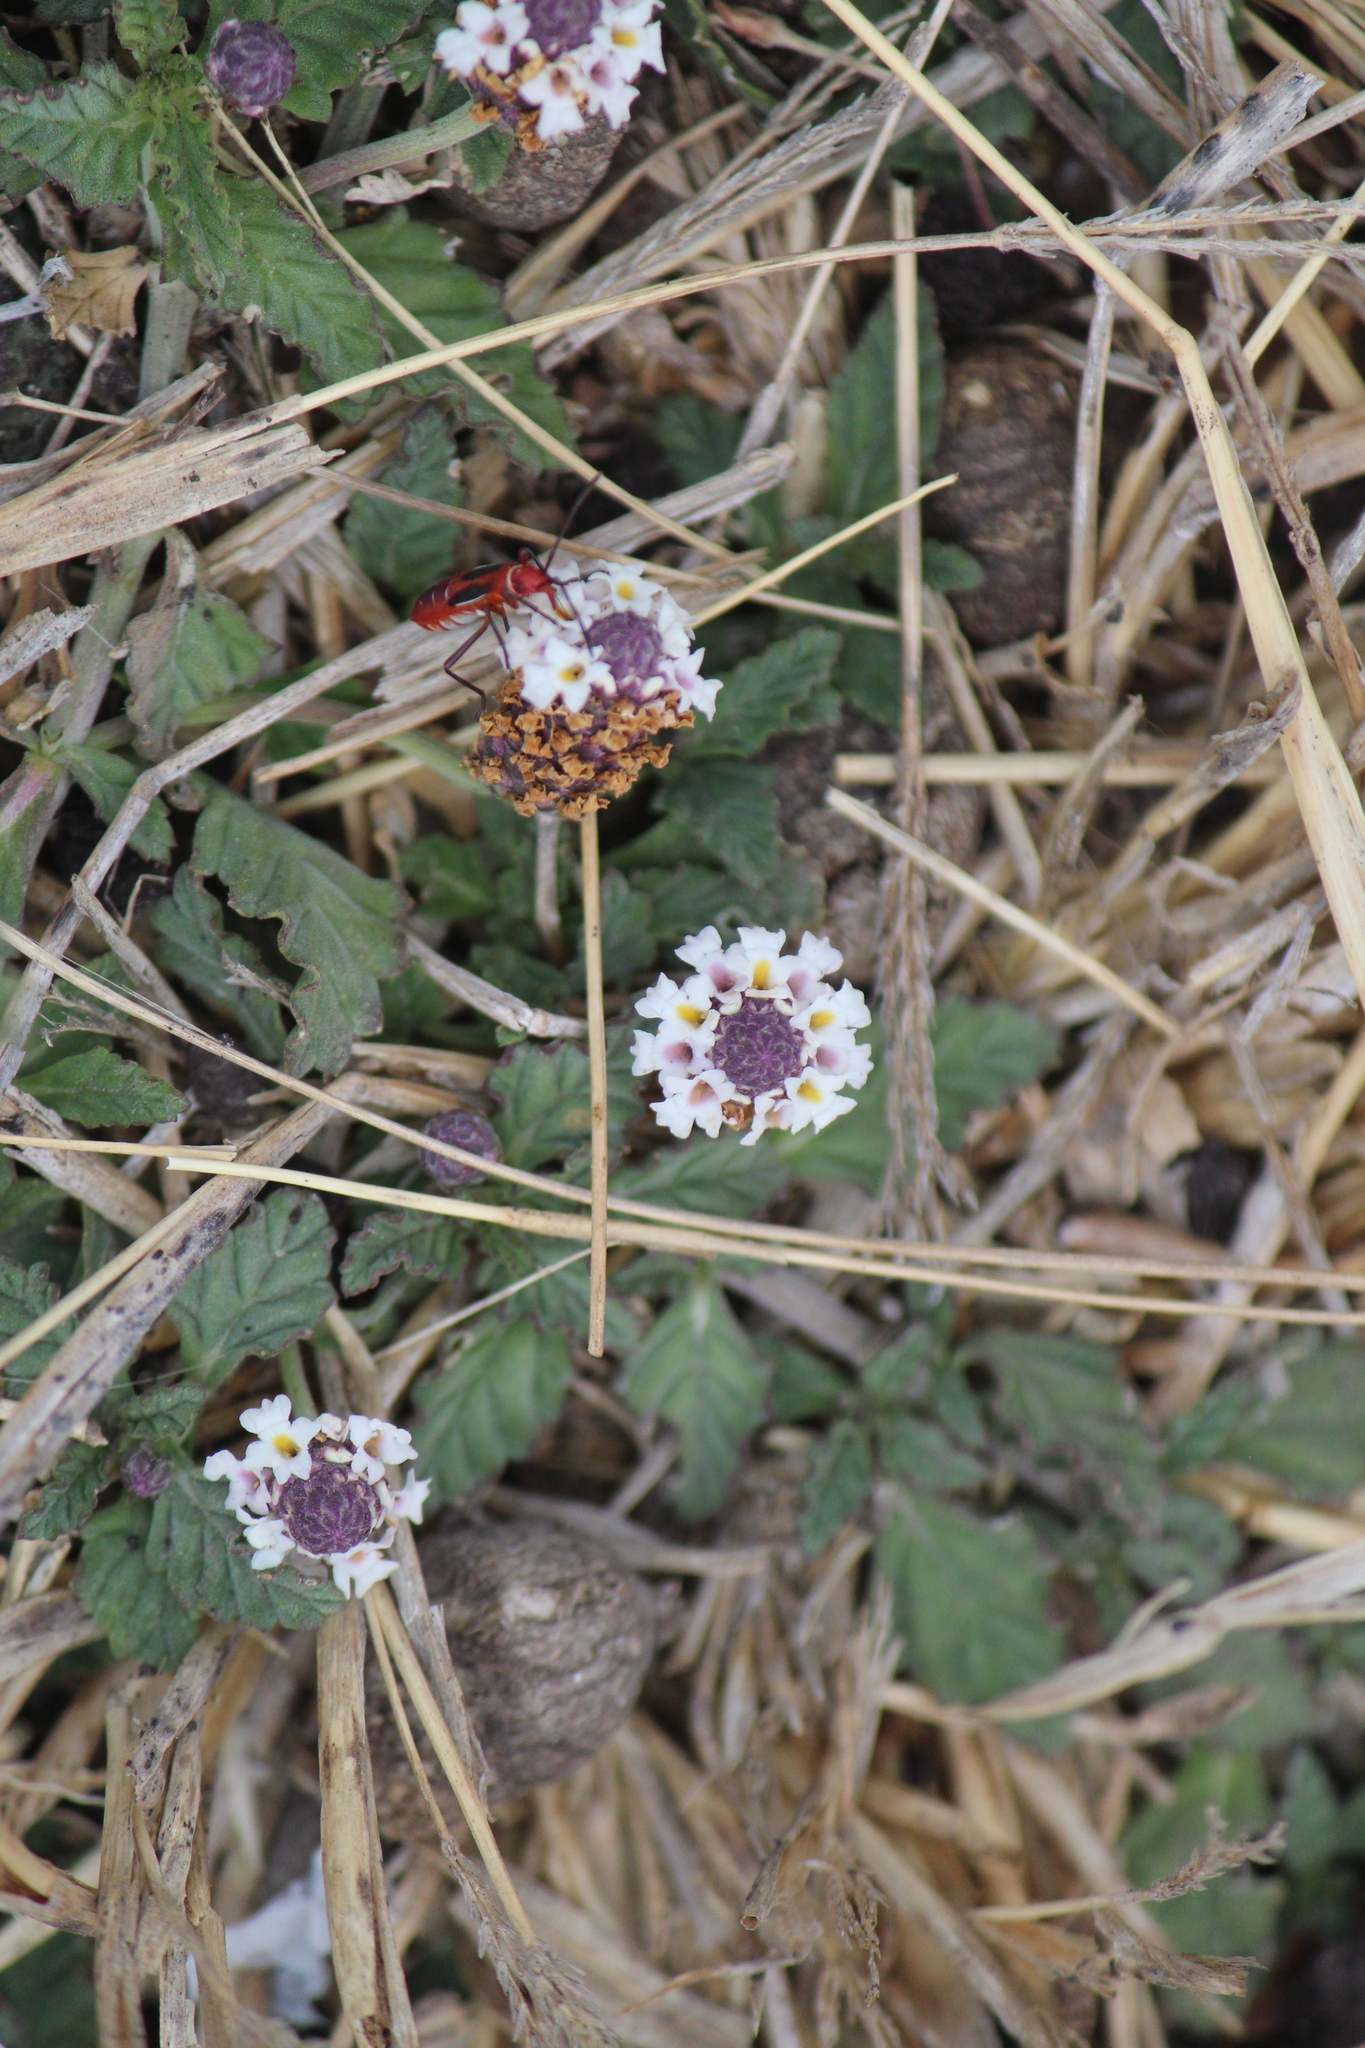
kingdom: Plantae
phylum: Tracheophyta
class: Magnoliopsida
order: Lamiales
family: Verbenaceae
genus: Phyla
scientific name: Phyla nodiflora
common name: Frogfruit
